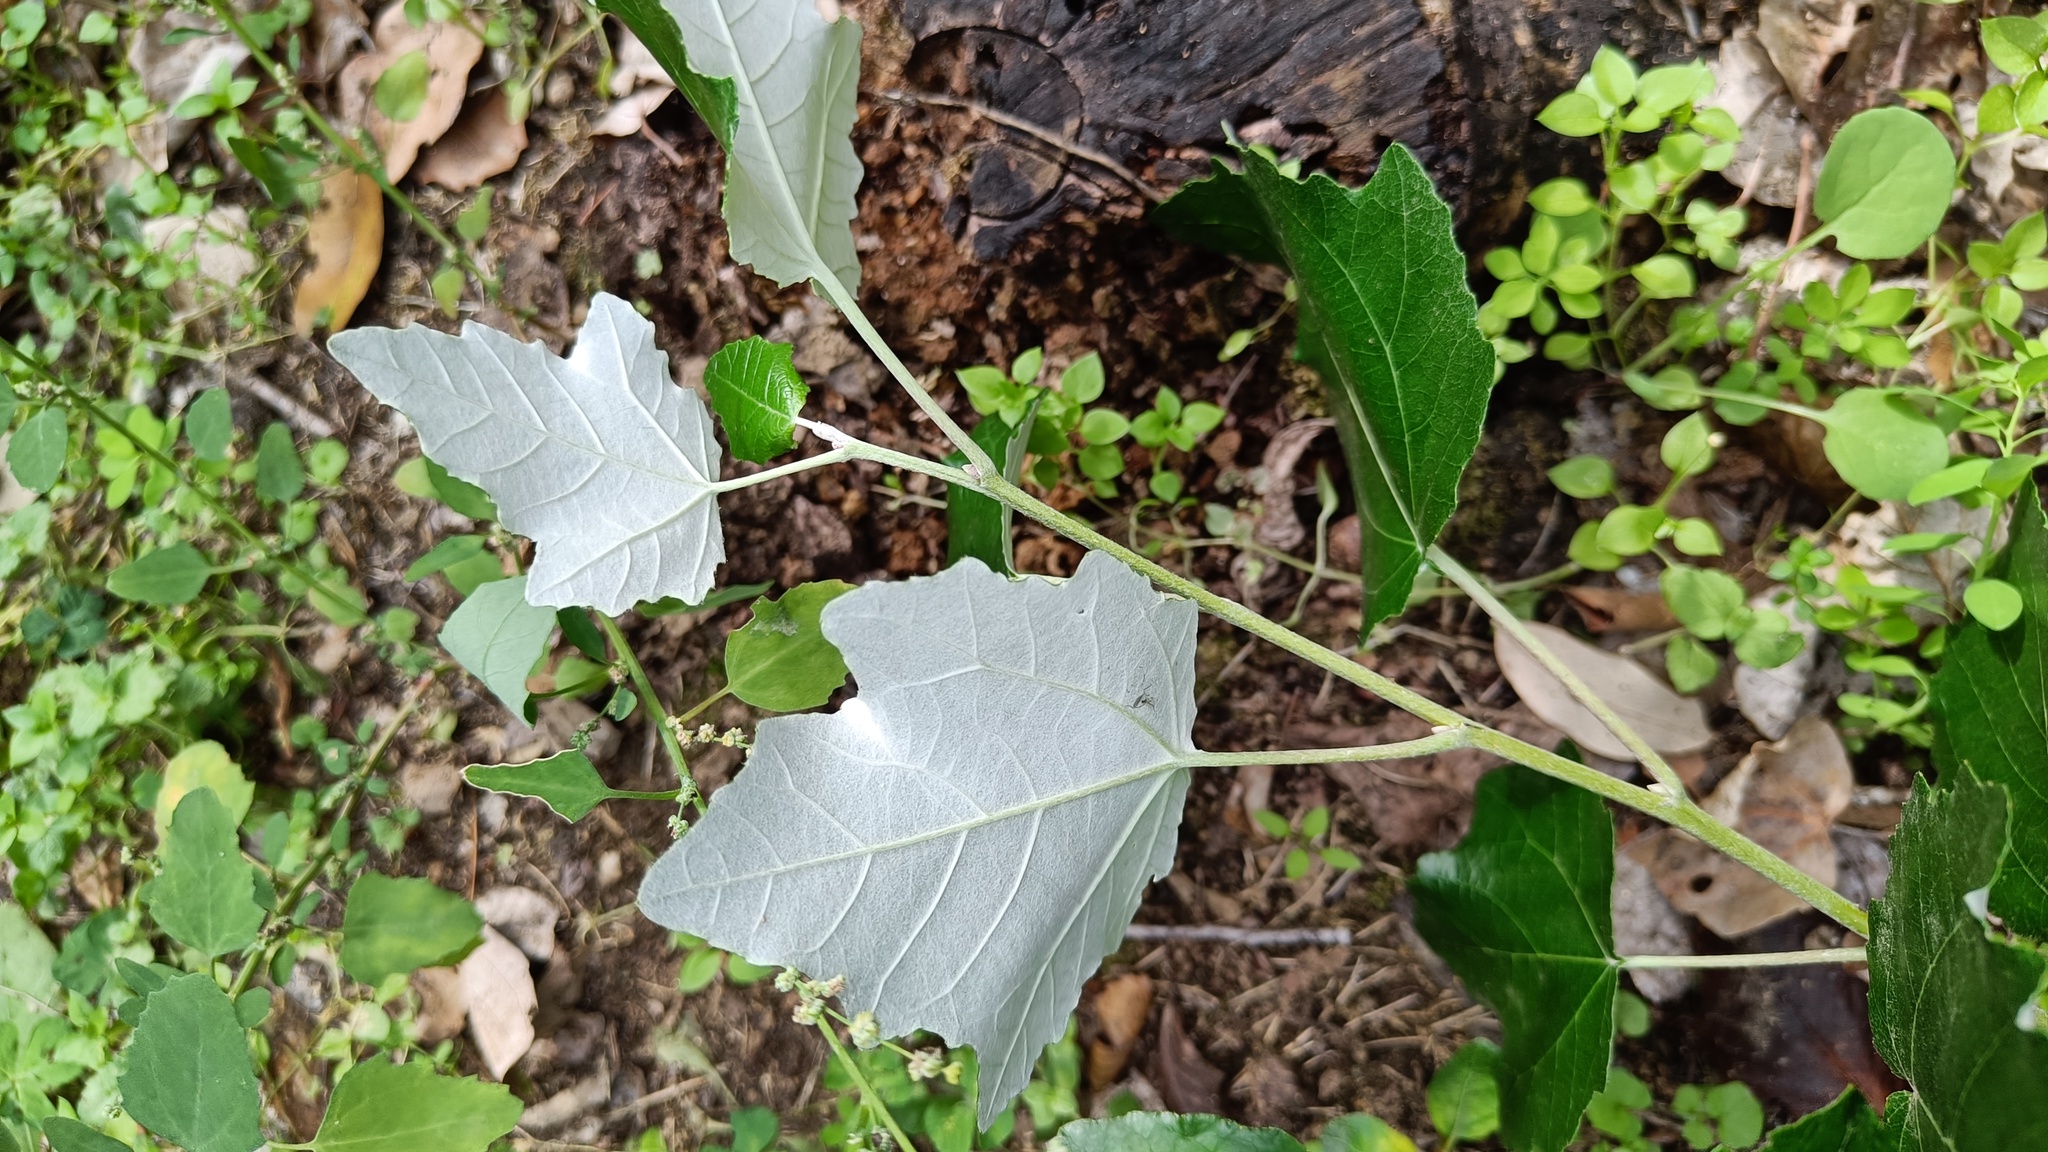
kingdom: Plantae
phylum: Tracheophyta
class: Magnoliopsida
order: Malpighiales
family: Salicaceae
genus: Populus
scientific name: Populus alba
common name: White poplar
